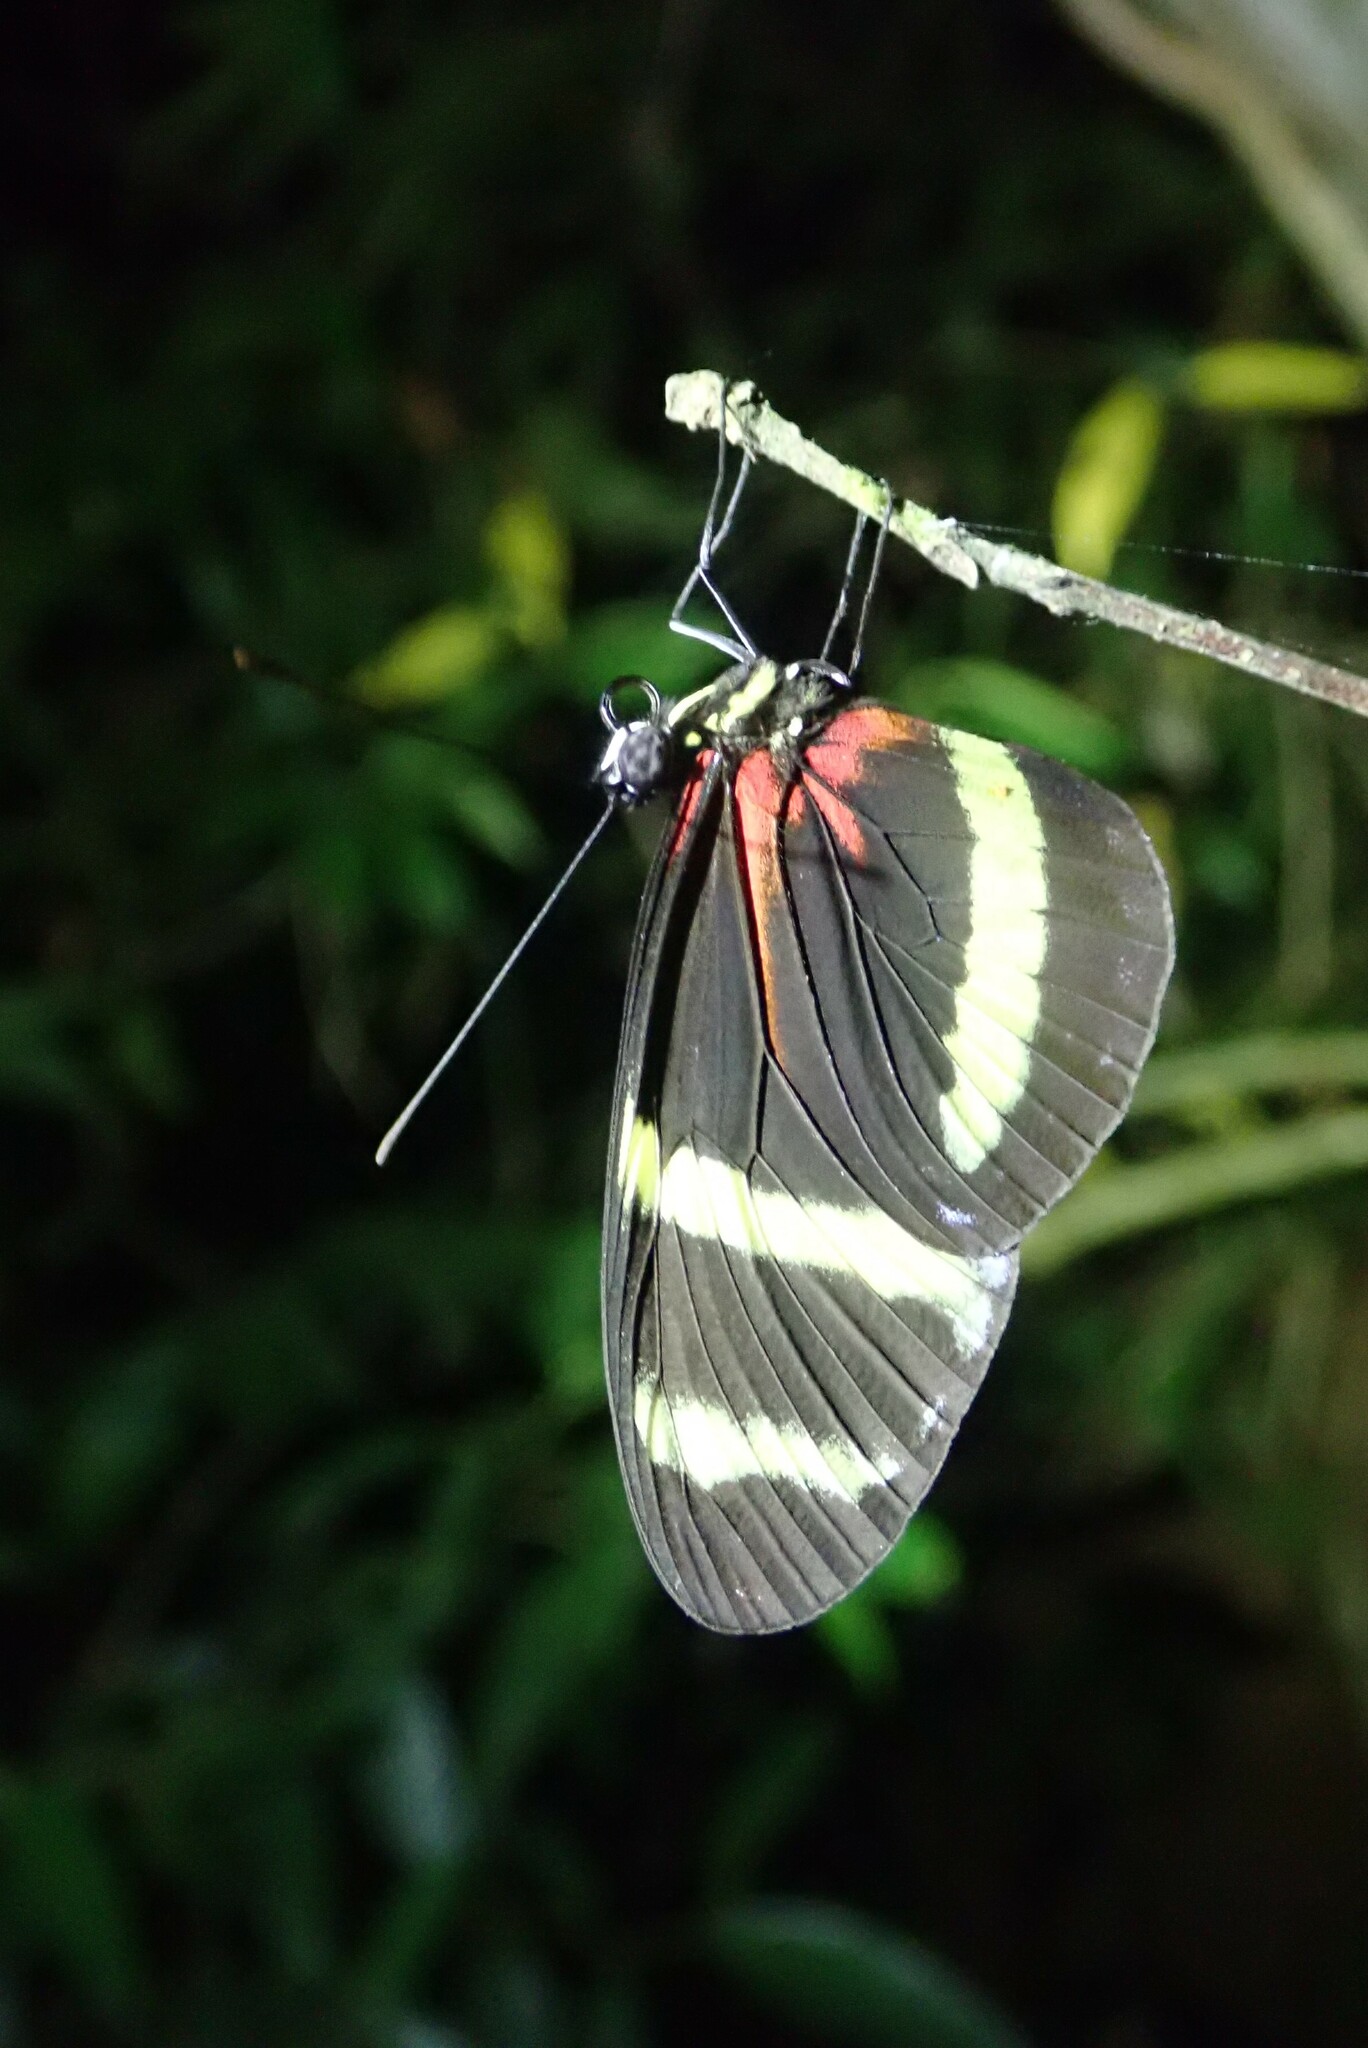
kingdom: Animalia
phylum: Arthropoda
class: Insecta
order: Lepidoptera
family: Nymphalidae
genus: Heliconius
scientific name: Heliconius pachinus
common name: Pachinus longwing
